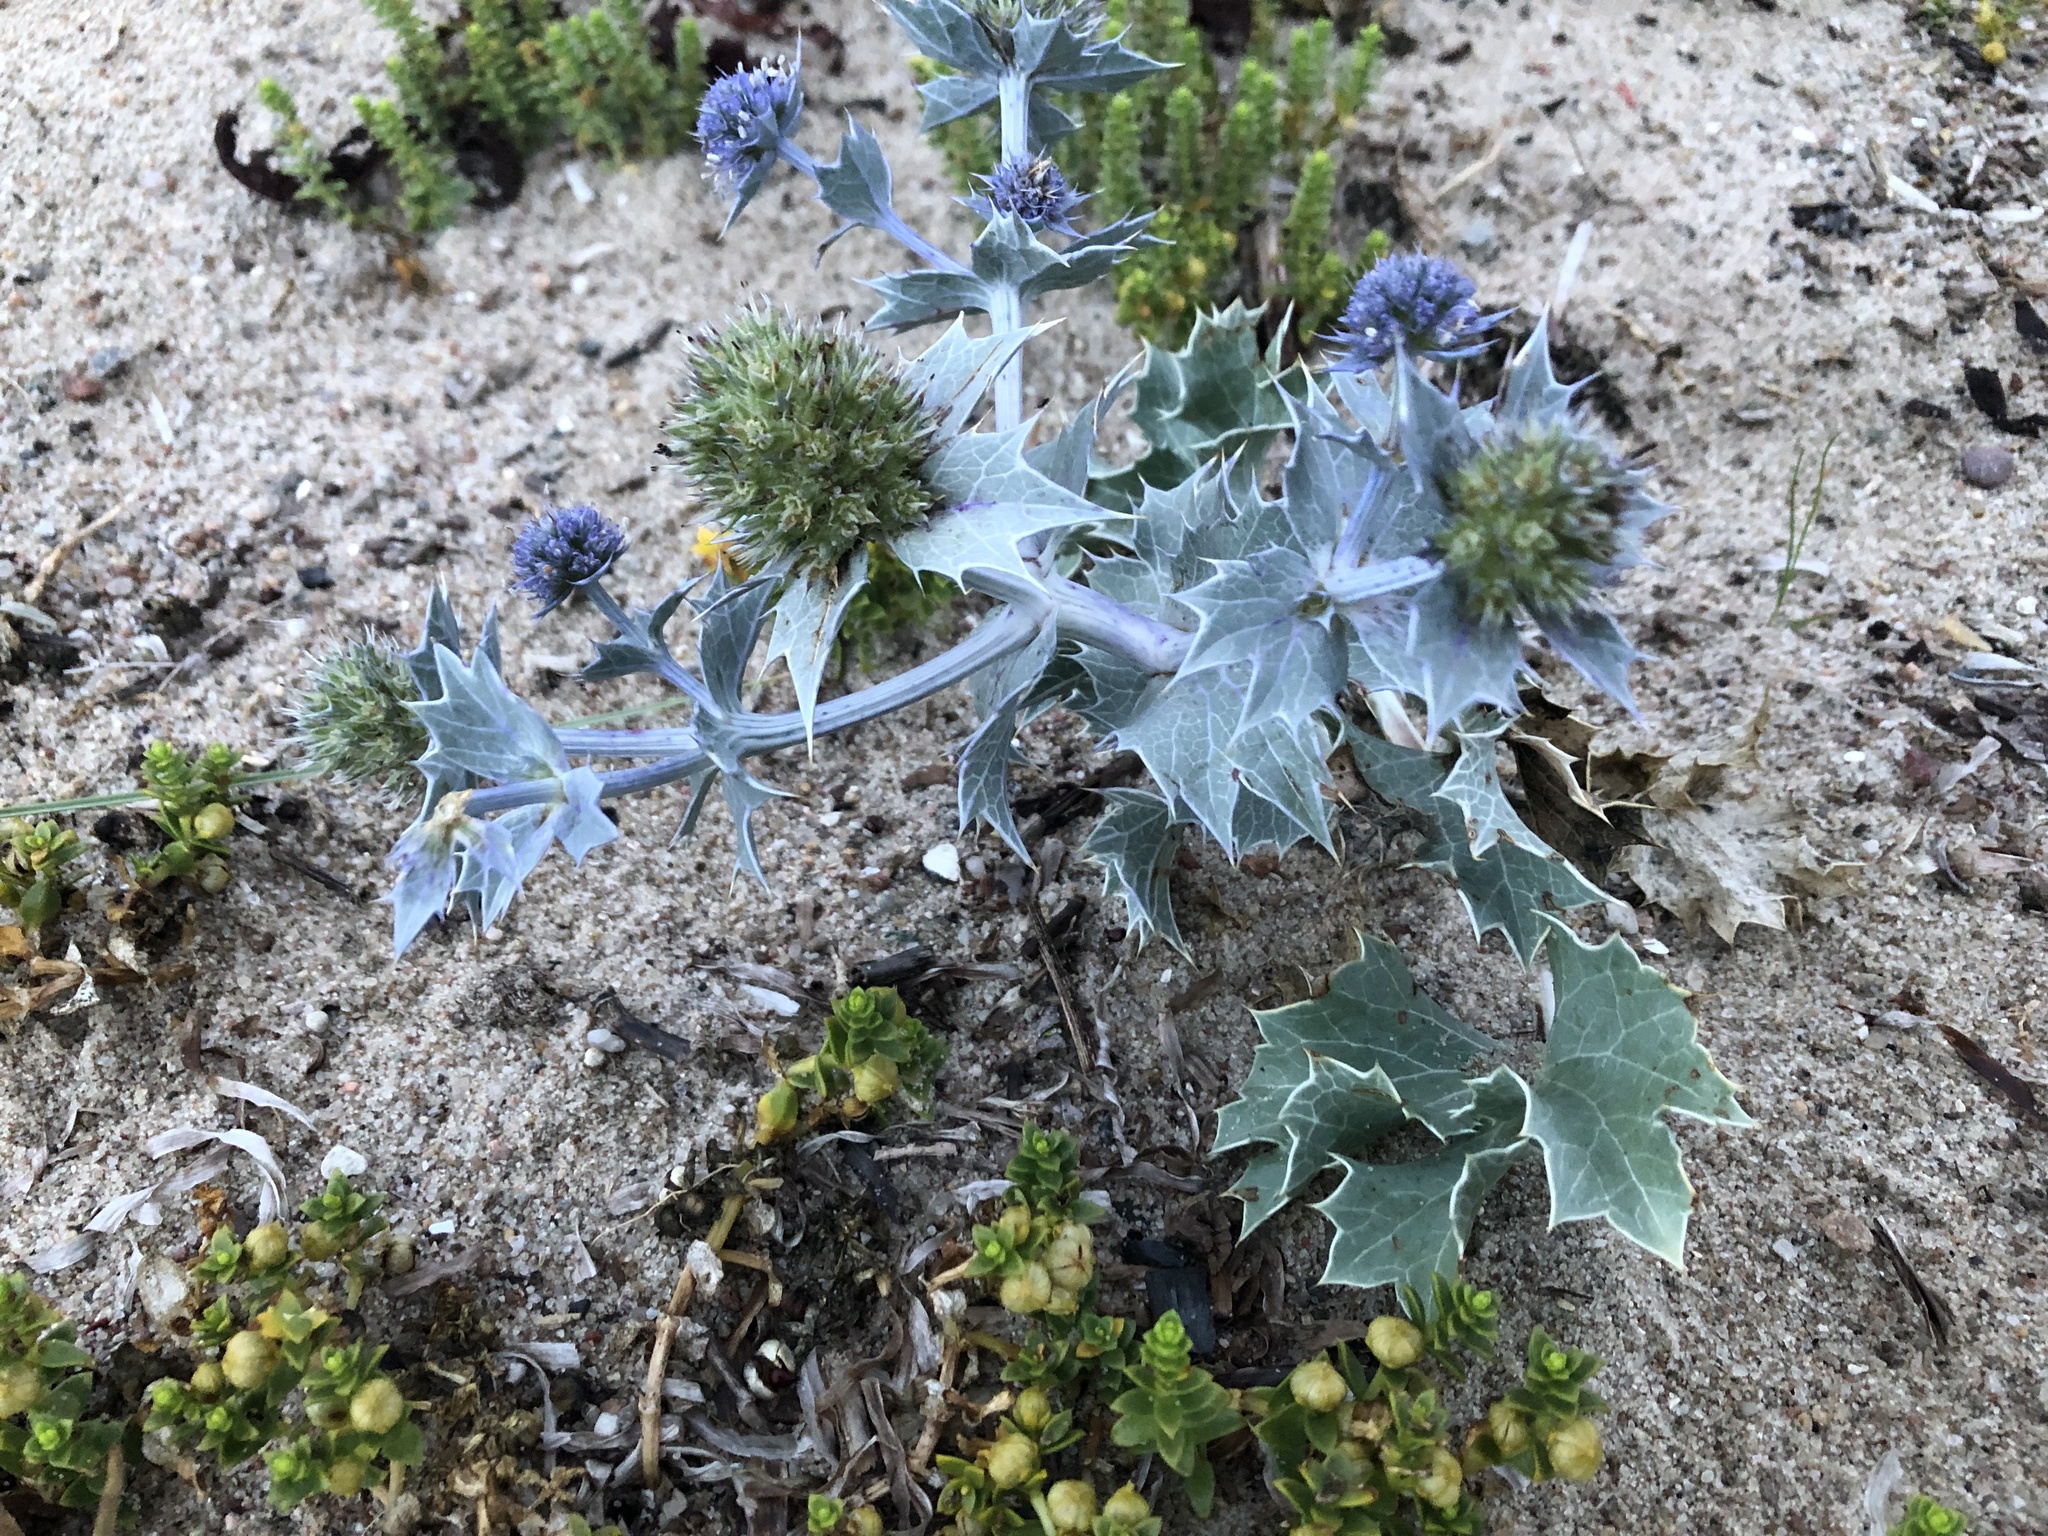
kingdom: Plantae
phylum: Tracheophyta
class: Magnoliopsida
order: Apiales
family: Apiaceae
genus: Eryngium
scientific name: Eryngium maritimum
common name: Sea-holly
